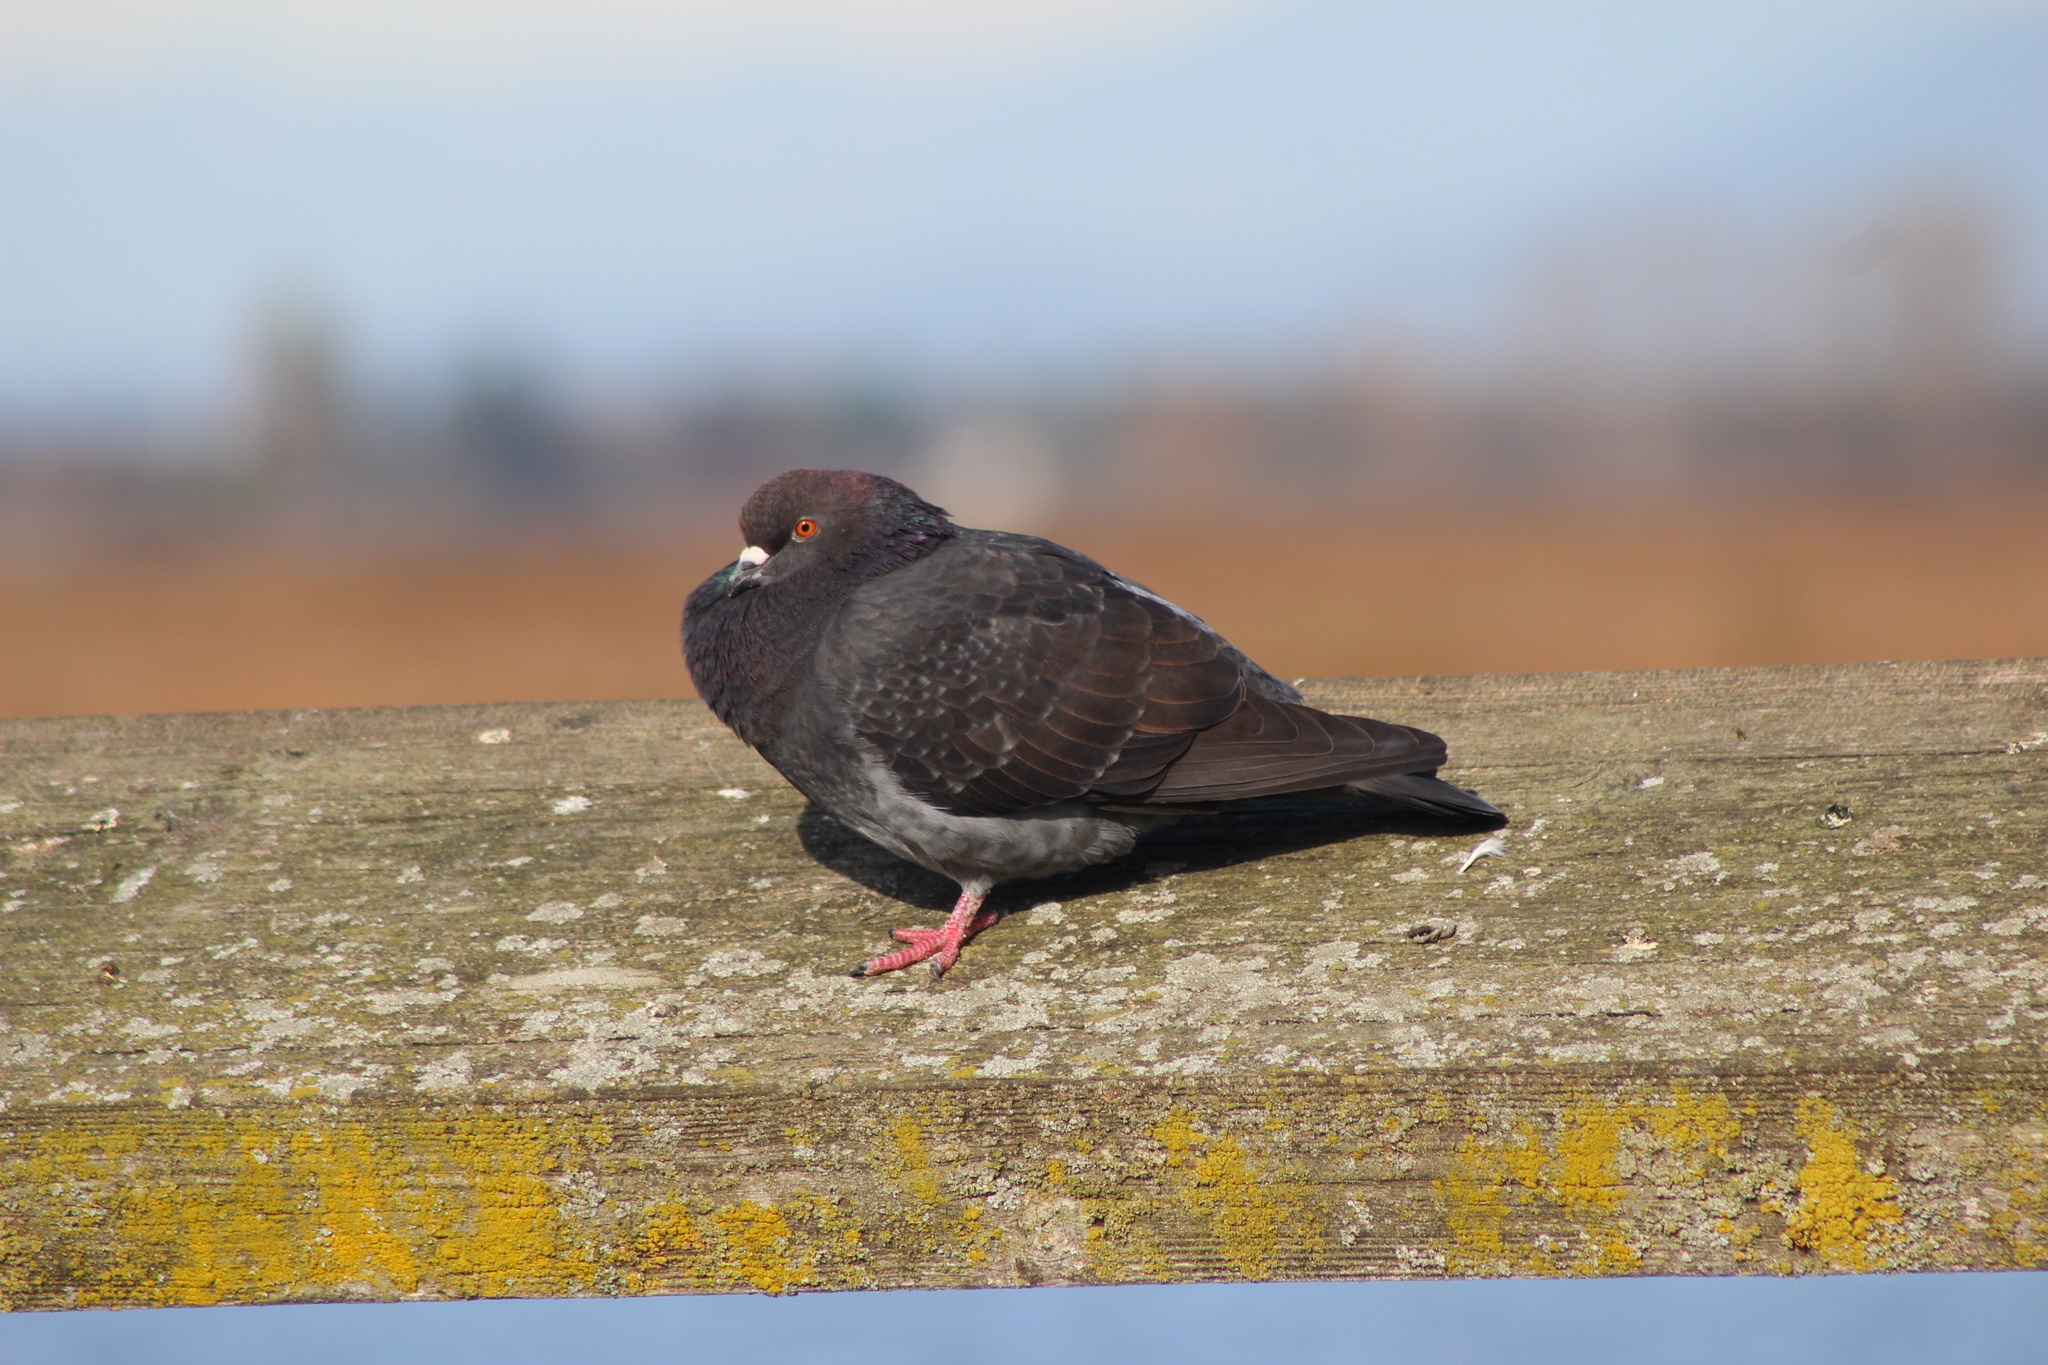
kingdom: Animalia
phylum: Chordata
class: Aves
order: Columbiformes
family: Columbidae
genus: Columba
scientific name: Columba livia
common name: Rock pigeon
